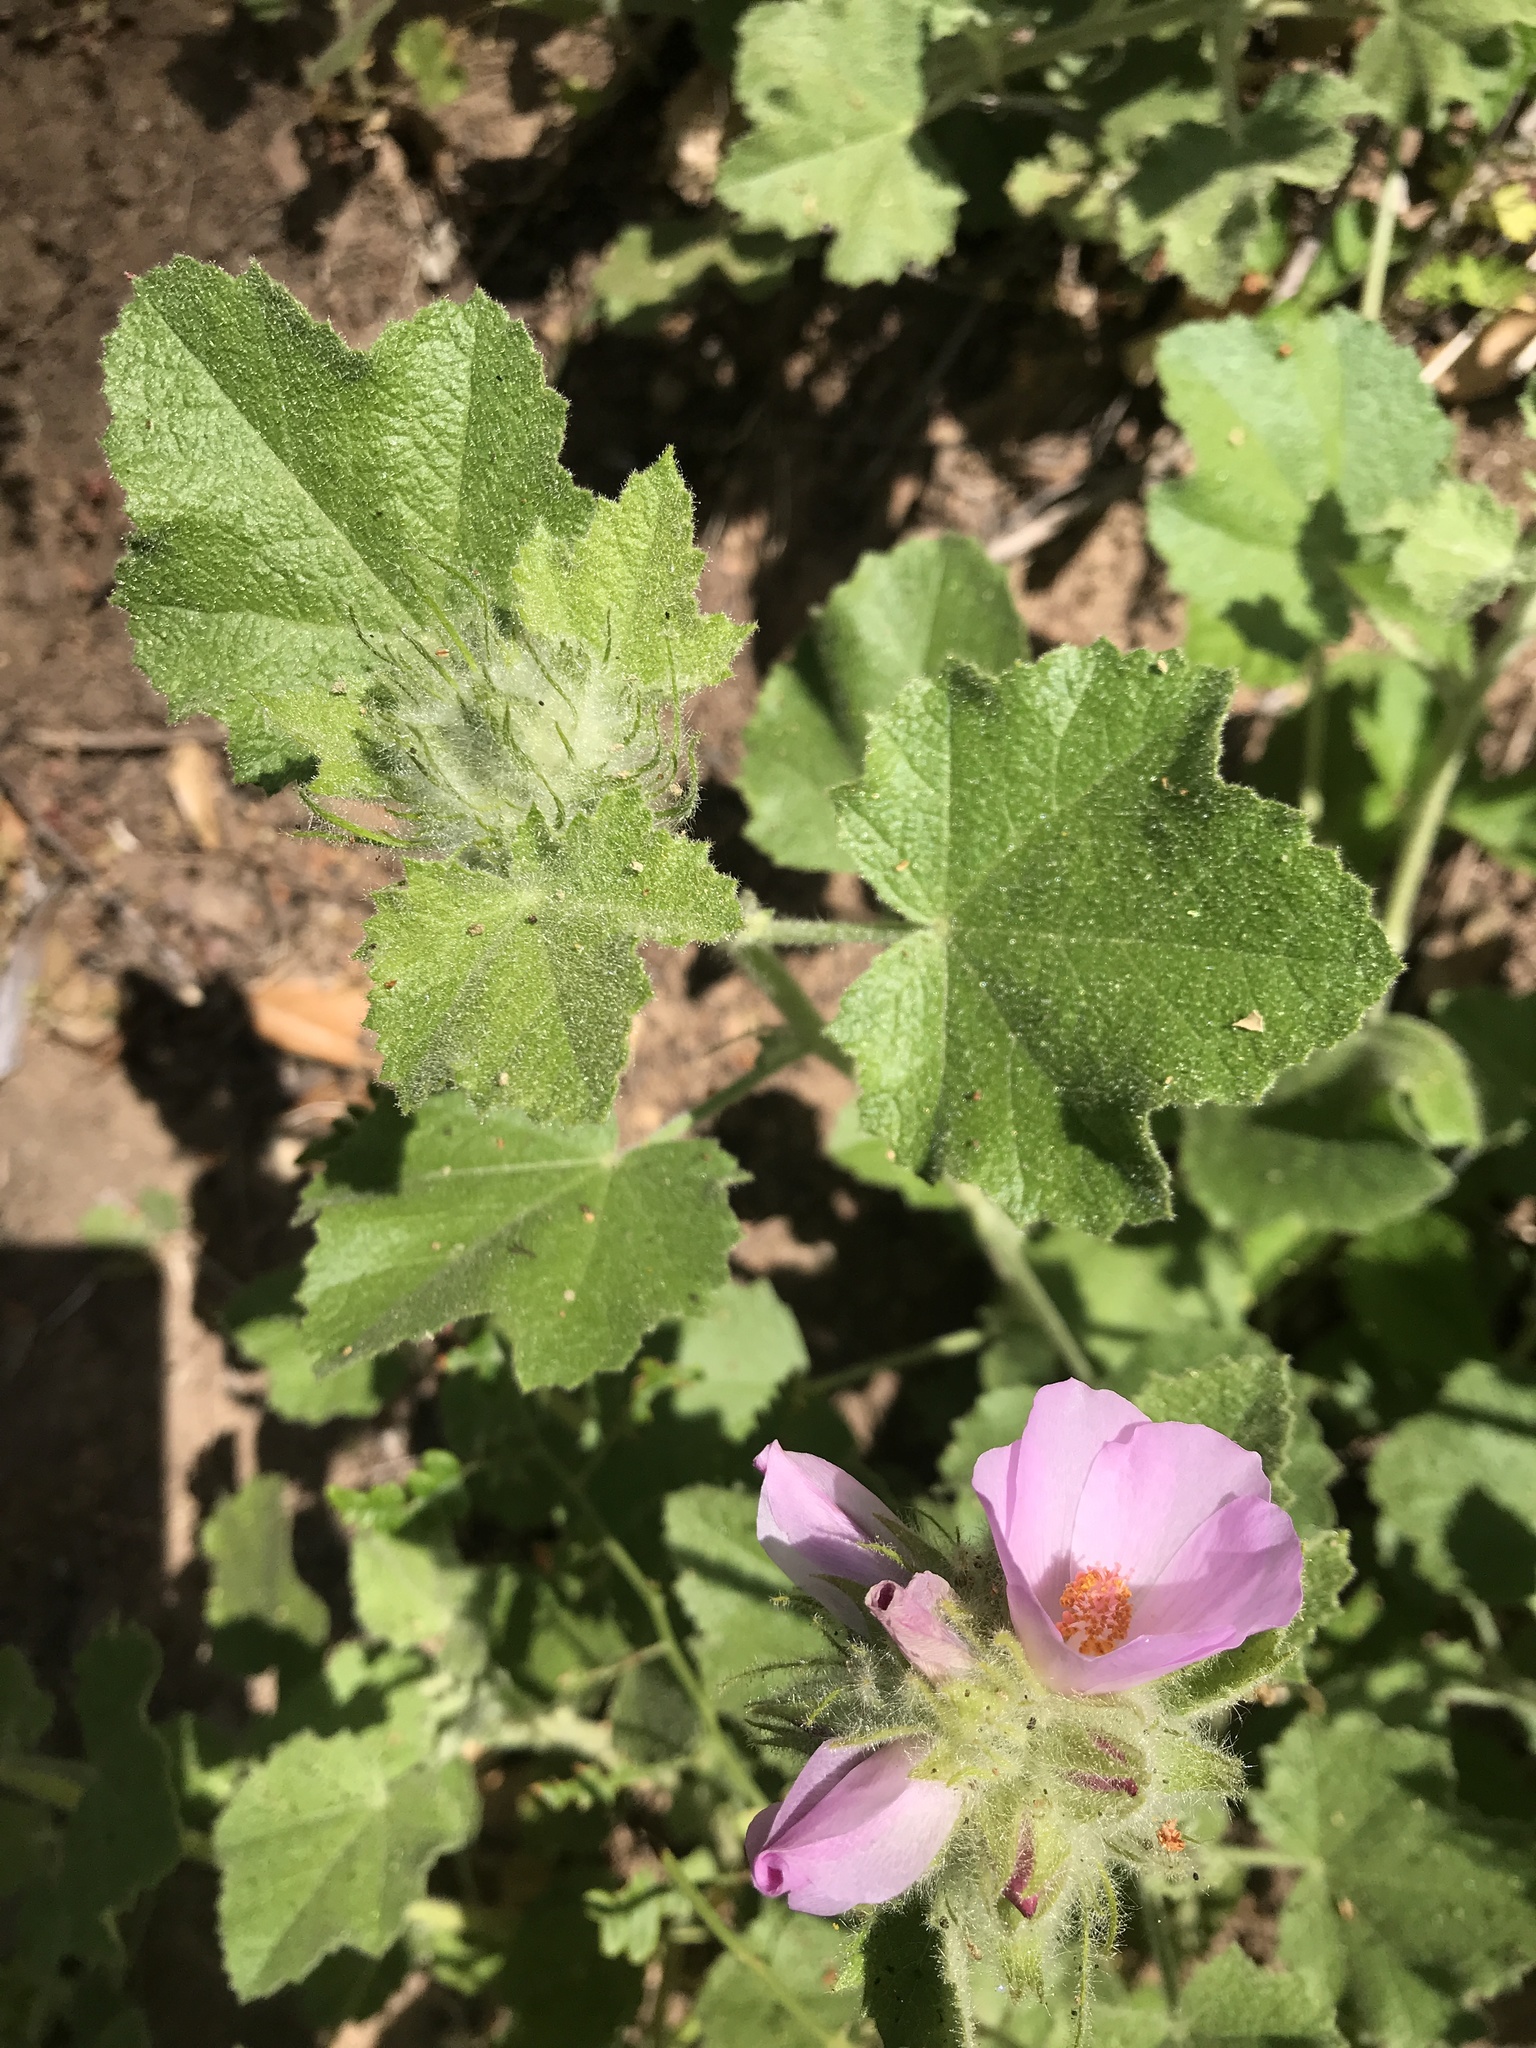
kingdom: Plantae
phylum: Tracheophyta
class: Magnoliopsida
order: Malvales
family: Malvaceae
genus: Malacothamnus
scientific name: Malacothamnus lucianus
